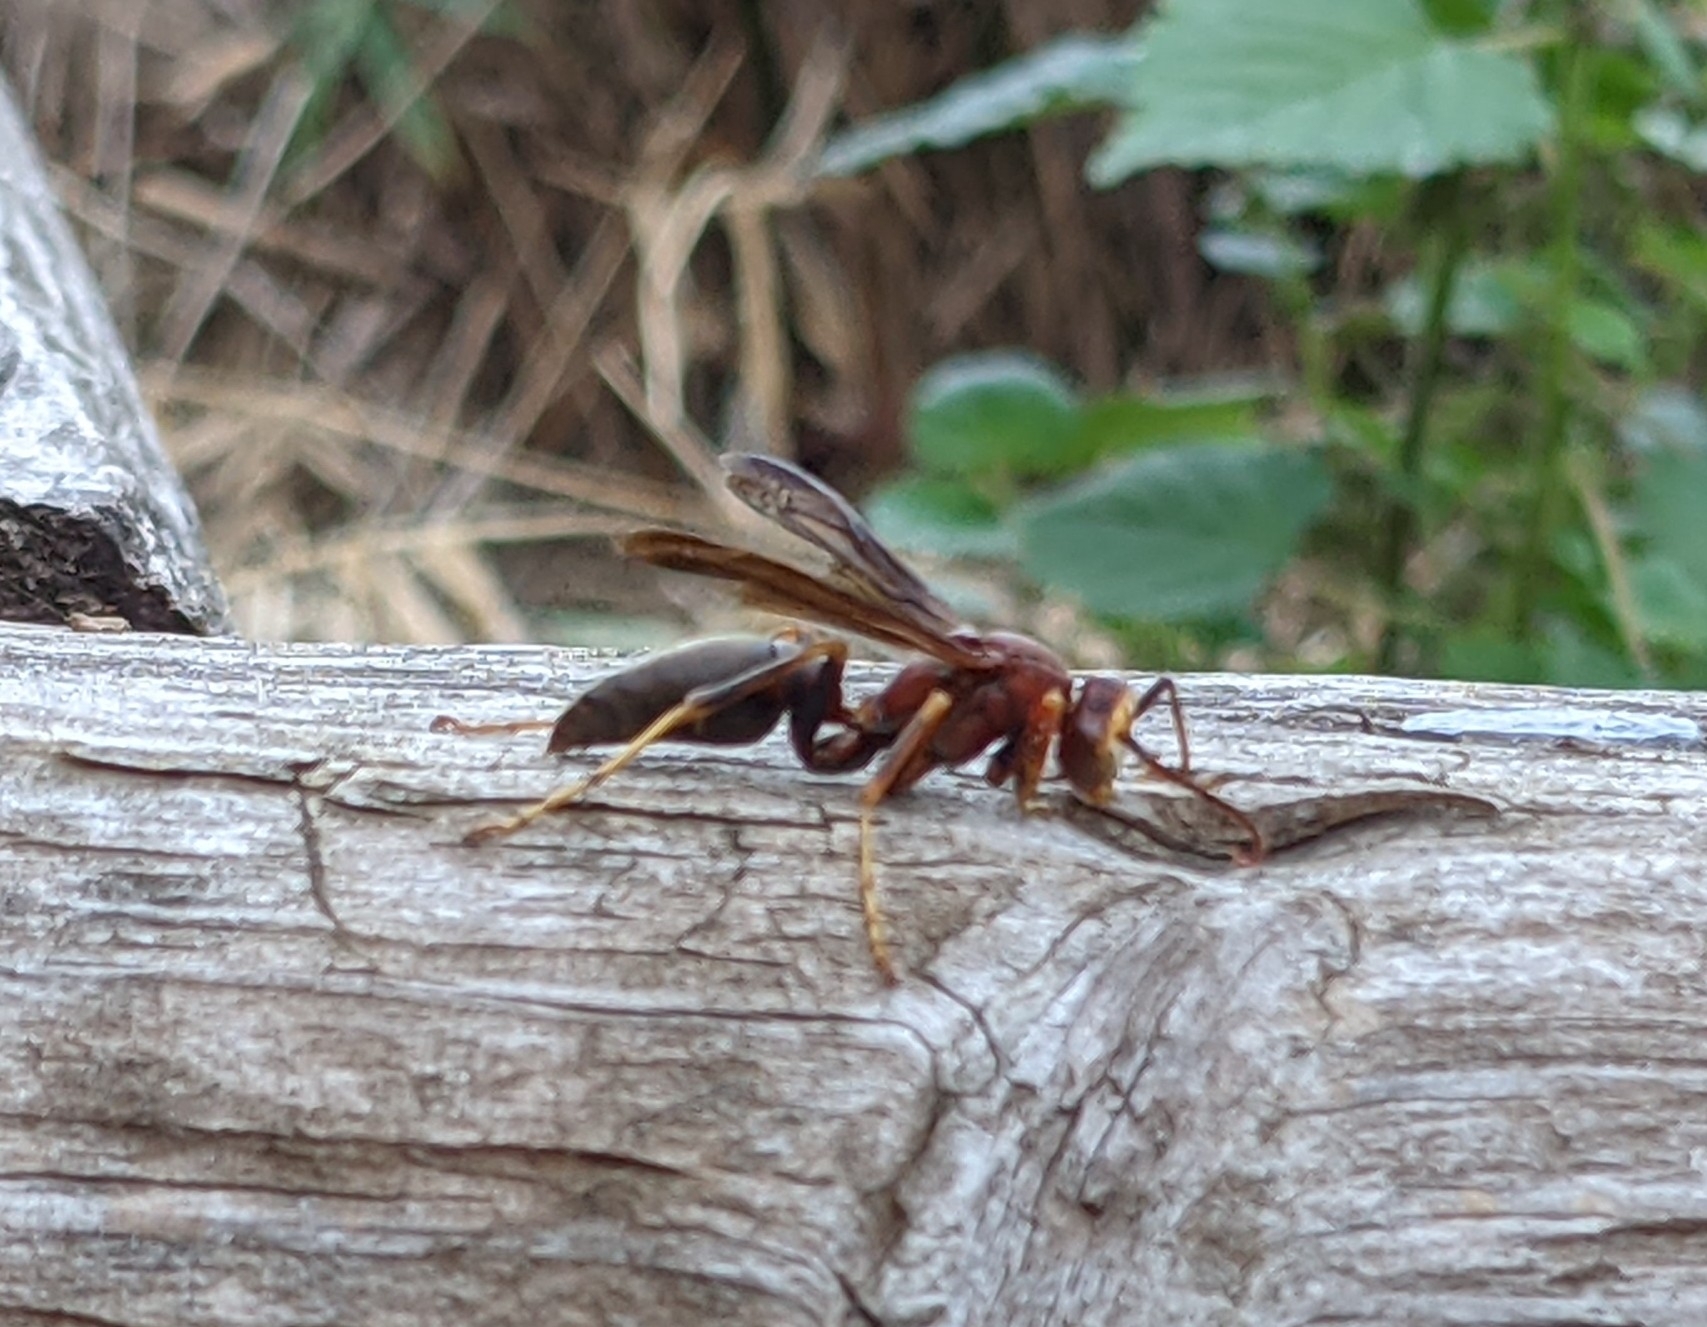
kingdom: Animalia
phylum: Arthropoda
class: Insecta
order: Hymenoptera
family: Eumenidae
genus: Polistes
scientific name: Polistes metricus
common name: Metric paper wasp
